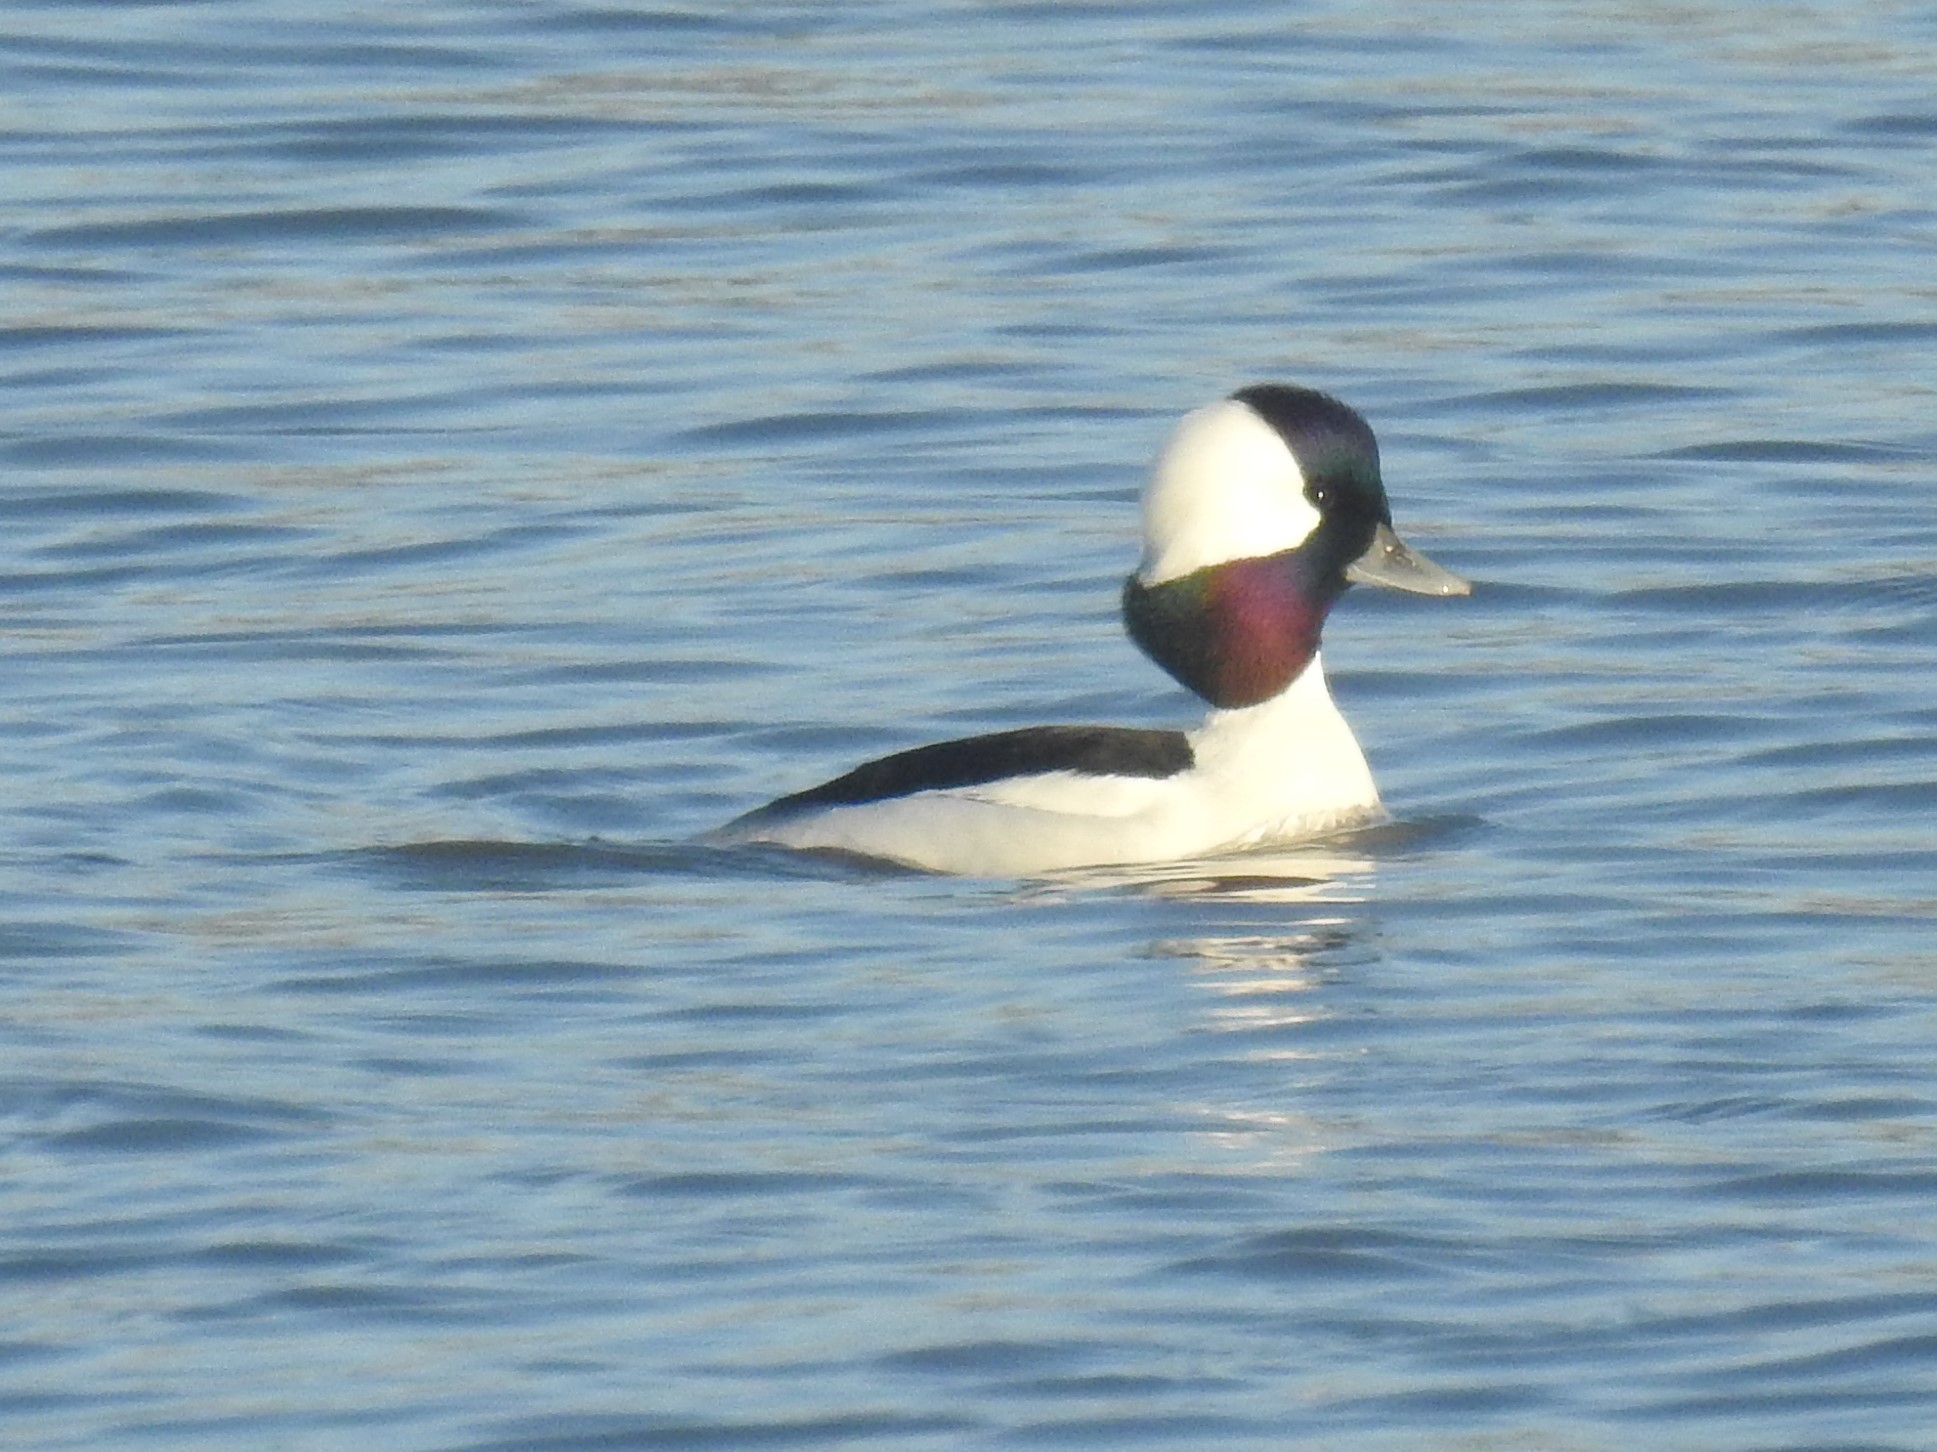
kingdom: Animalia
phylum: Chordata
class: Aves
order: Anseriformes
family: Anatidae
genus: Bucephala
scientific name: Bucephala albeola
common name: Bufflehead
